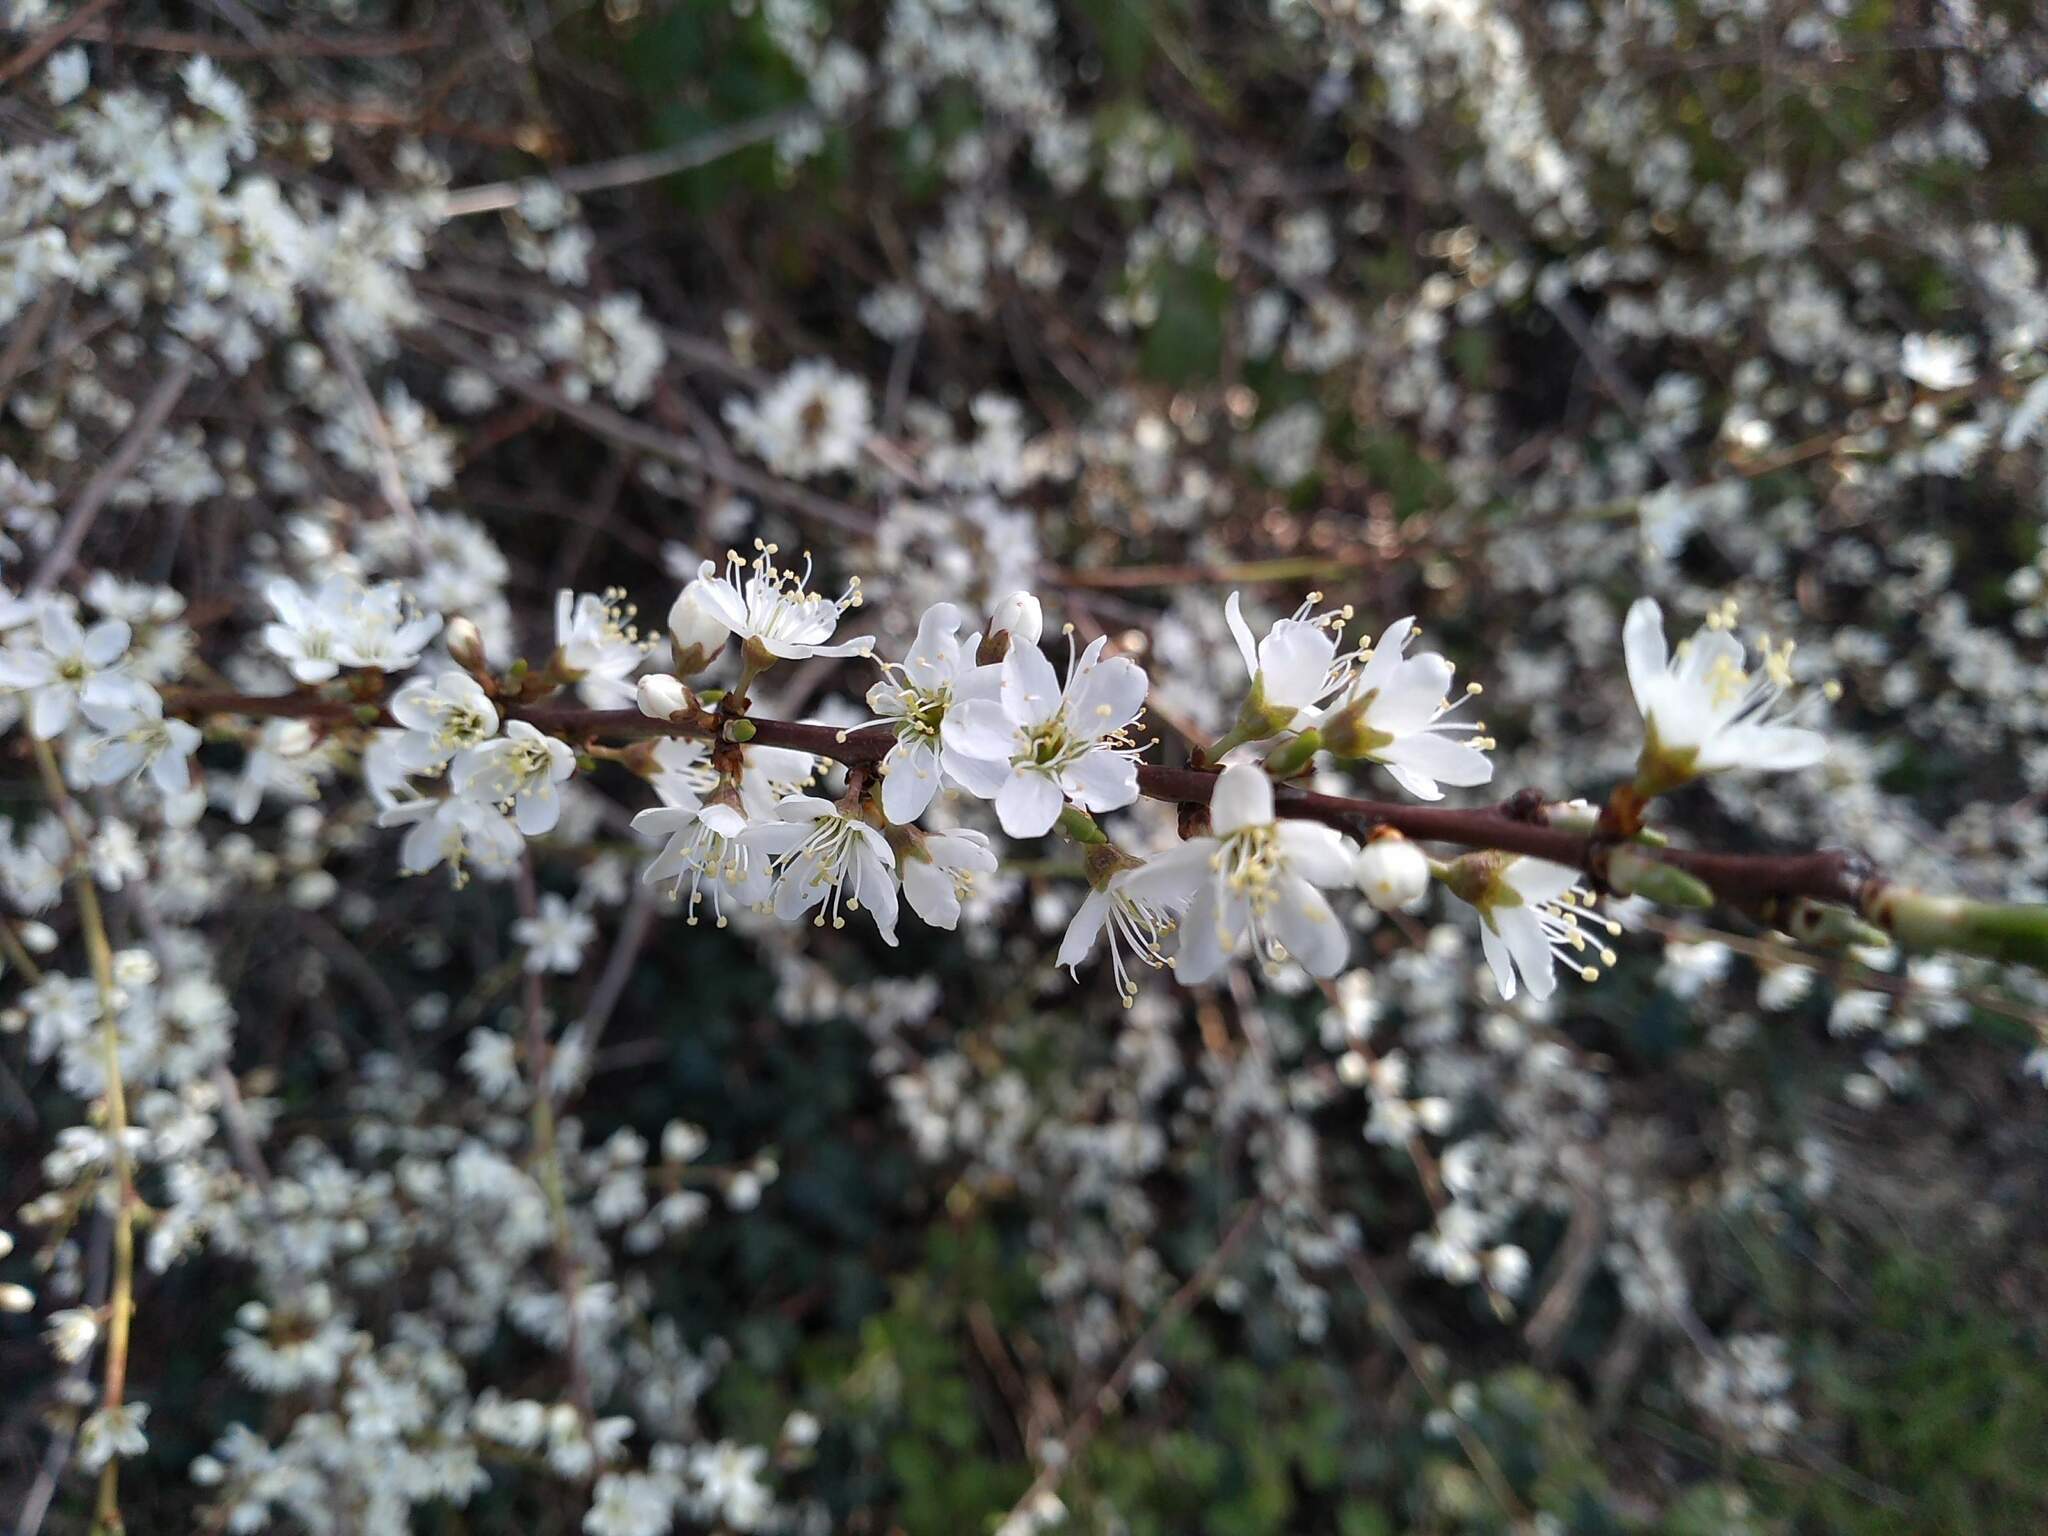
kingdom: Plantae
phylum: Tracheophyta
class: Magnoliopsida
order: Rosales
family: Rosaceae
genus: Prunus
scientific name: Prunus spinosa
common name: Blackthorn
